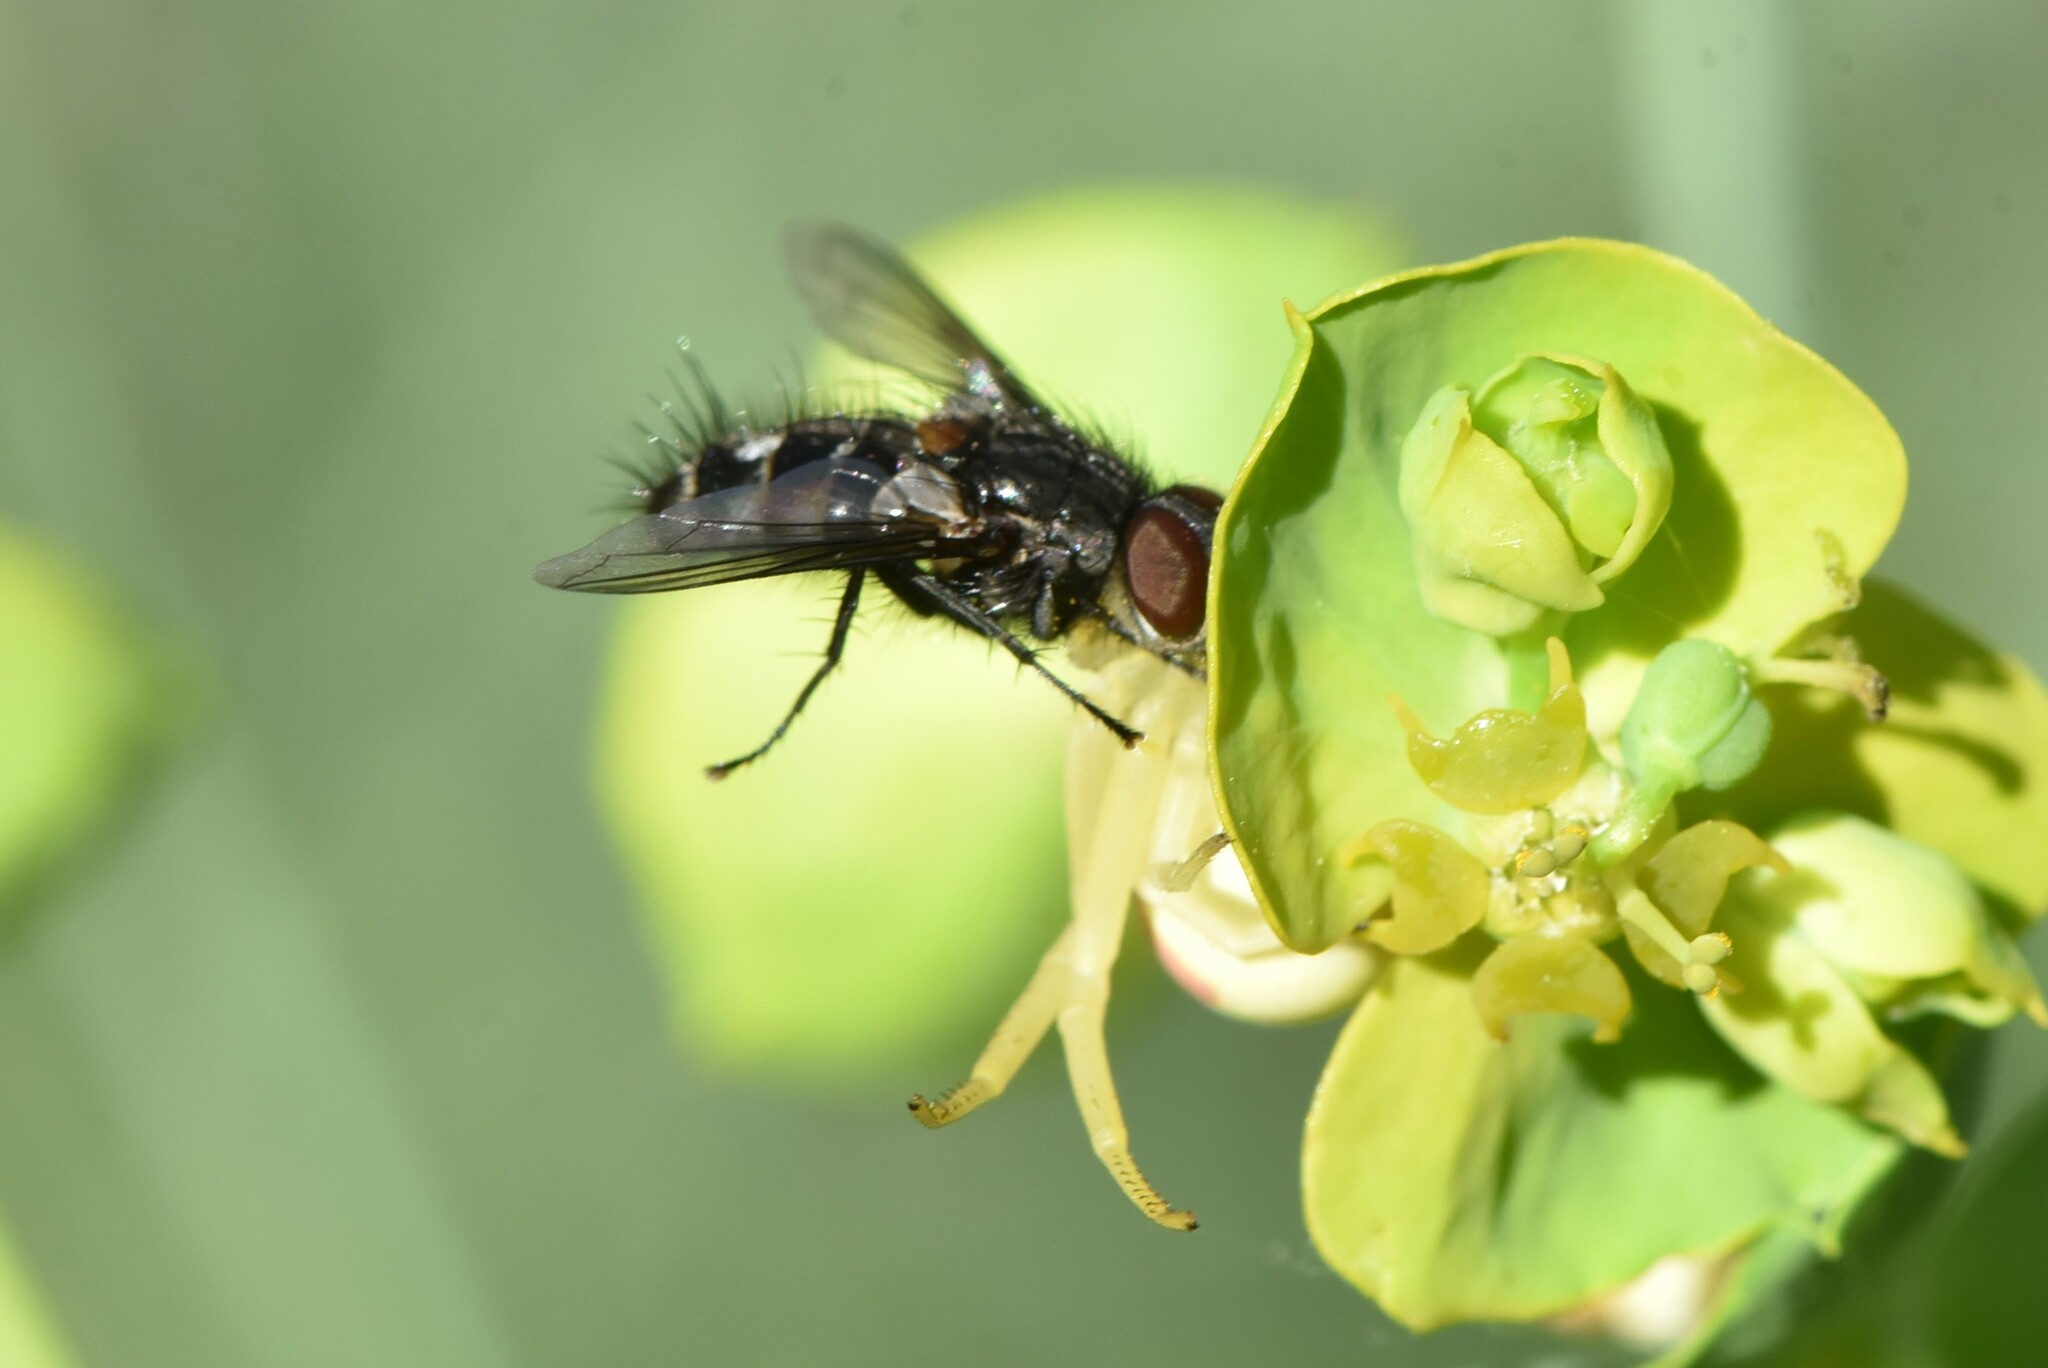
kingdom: Animalia
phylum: Arthropoda
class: Arachnida
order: Araneae
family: Thomisidae
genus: Misumena
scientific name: Misumena vatia
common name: Goldenrod crab spider
